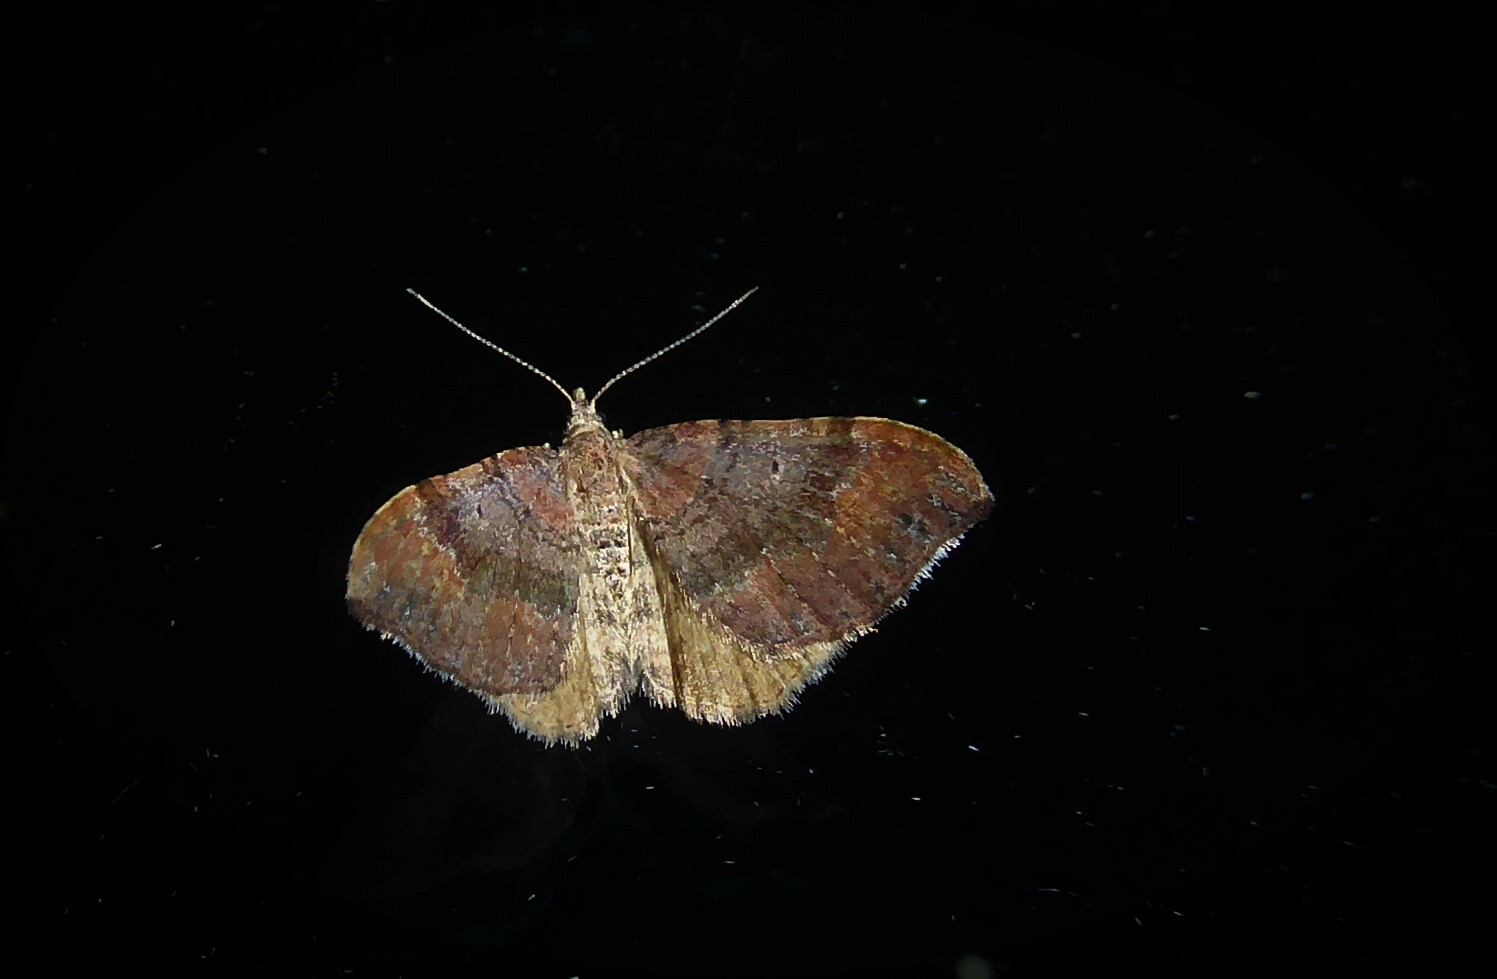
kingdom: Animalia
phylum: Arthropoda
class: Insecta
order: Lepidoptera
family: Geometridae
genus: Homodotis
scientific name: Homodotis megaspilata
